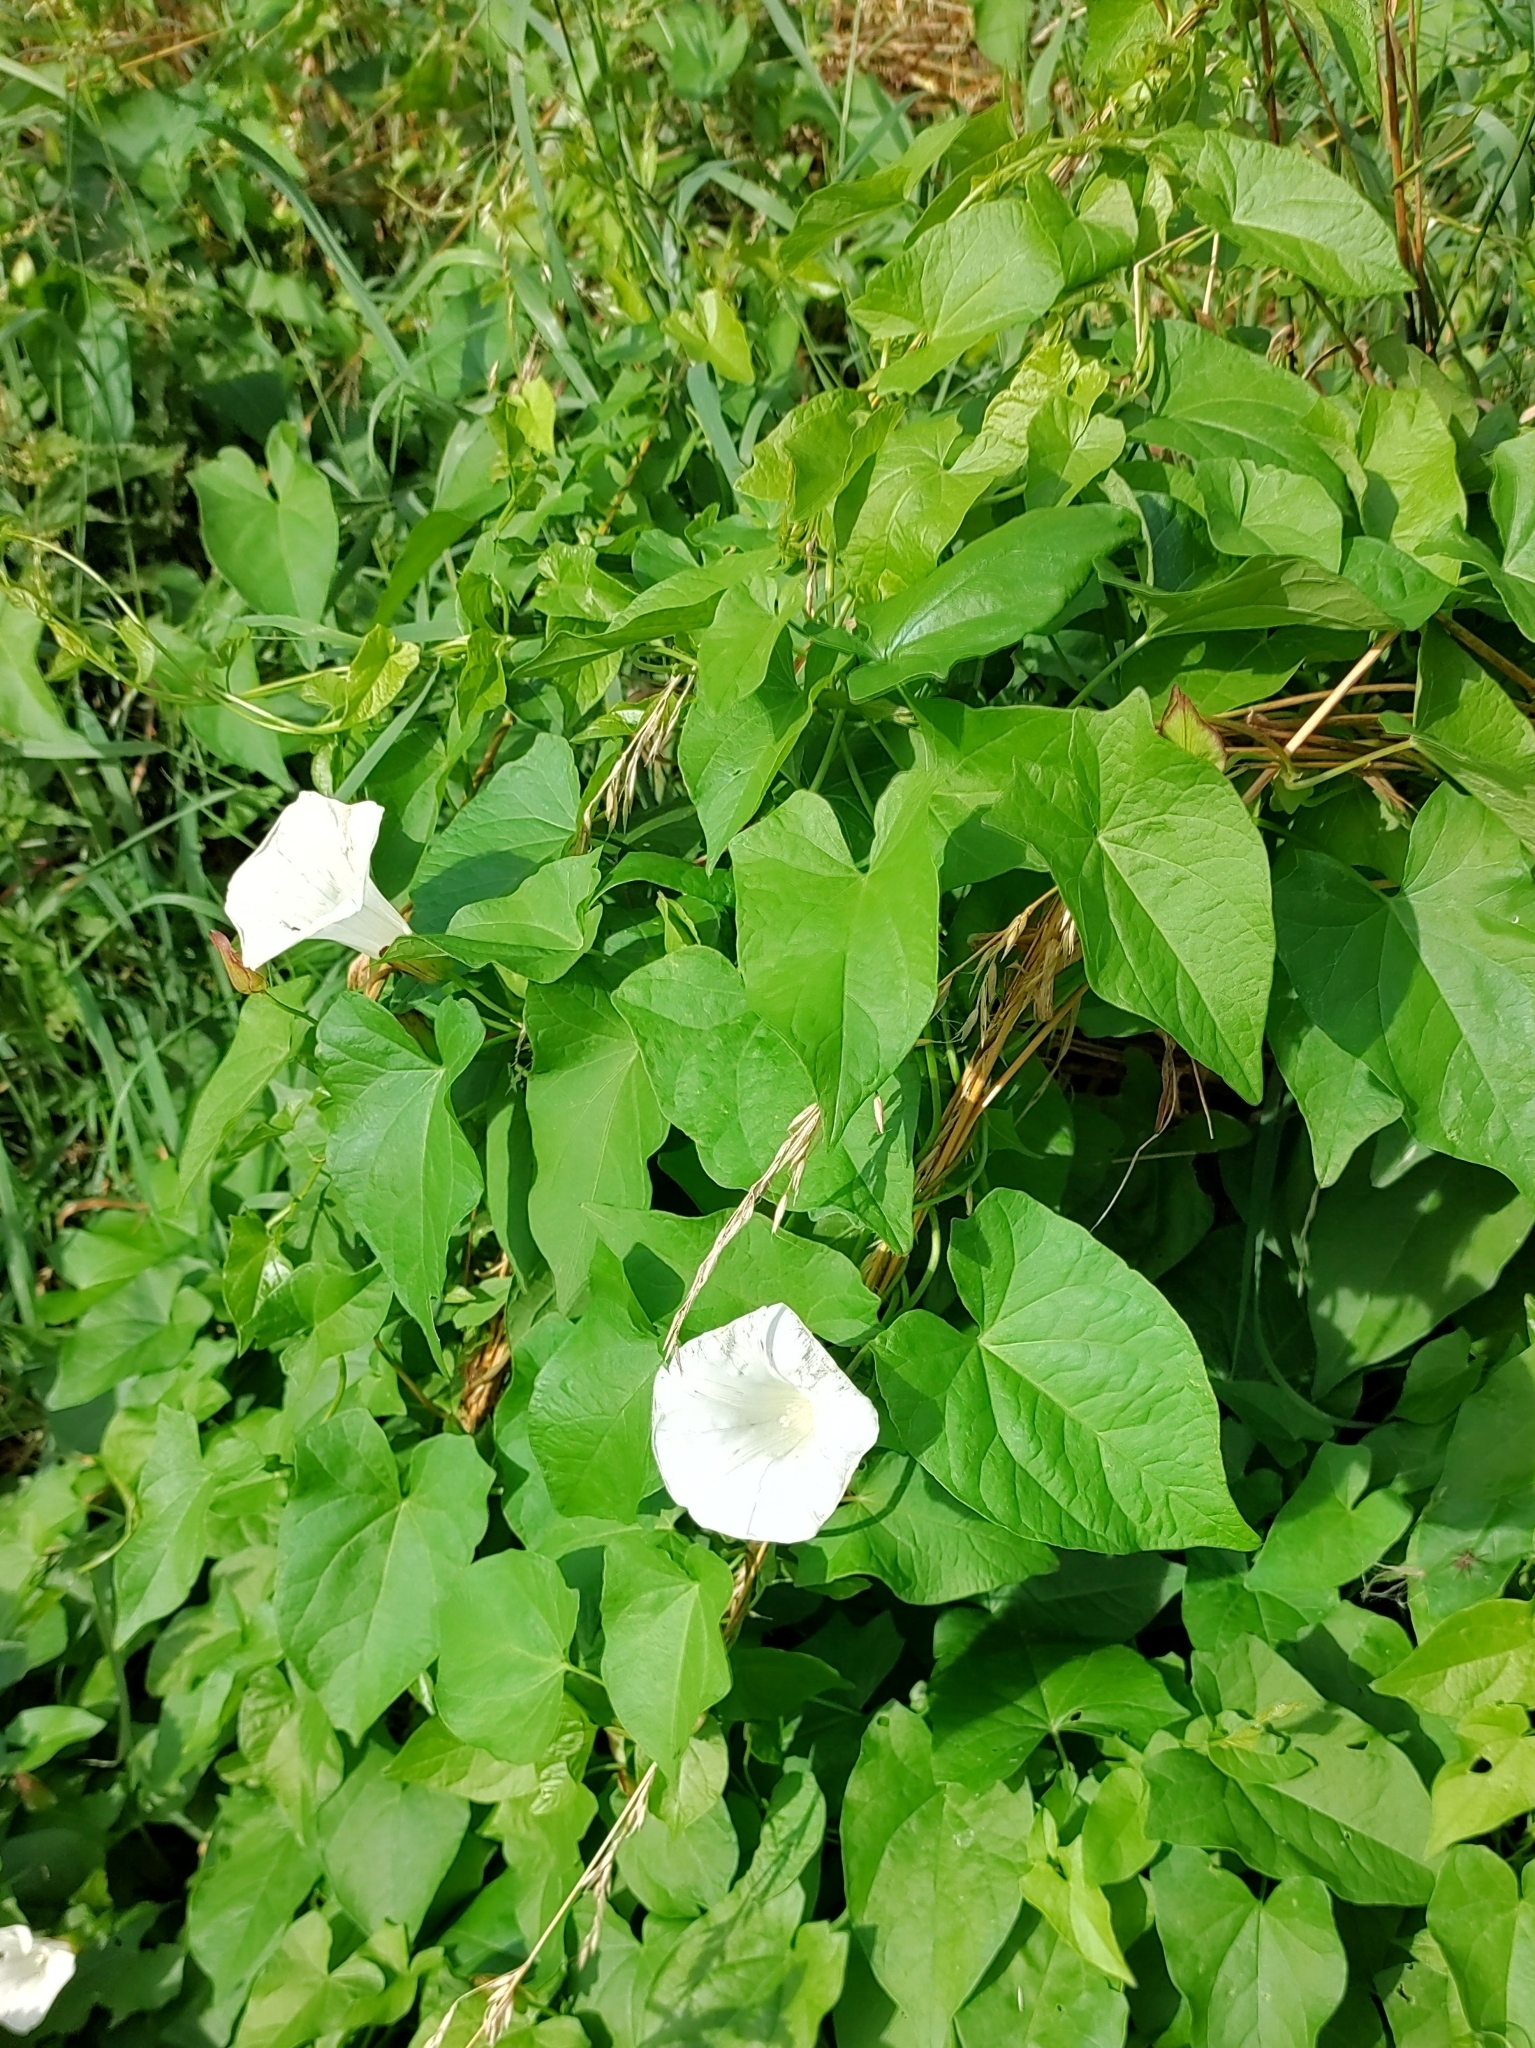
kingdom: Plantae
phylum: Tracheophyta
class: Magnoliopsida
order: Solanales
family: Convolvulaceae
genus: Calystegia
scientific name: Calystegia sepium
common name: Hedge bindweed
